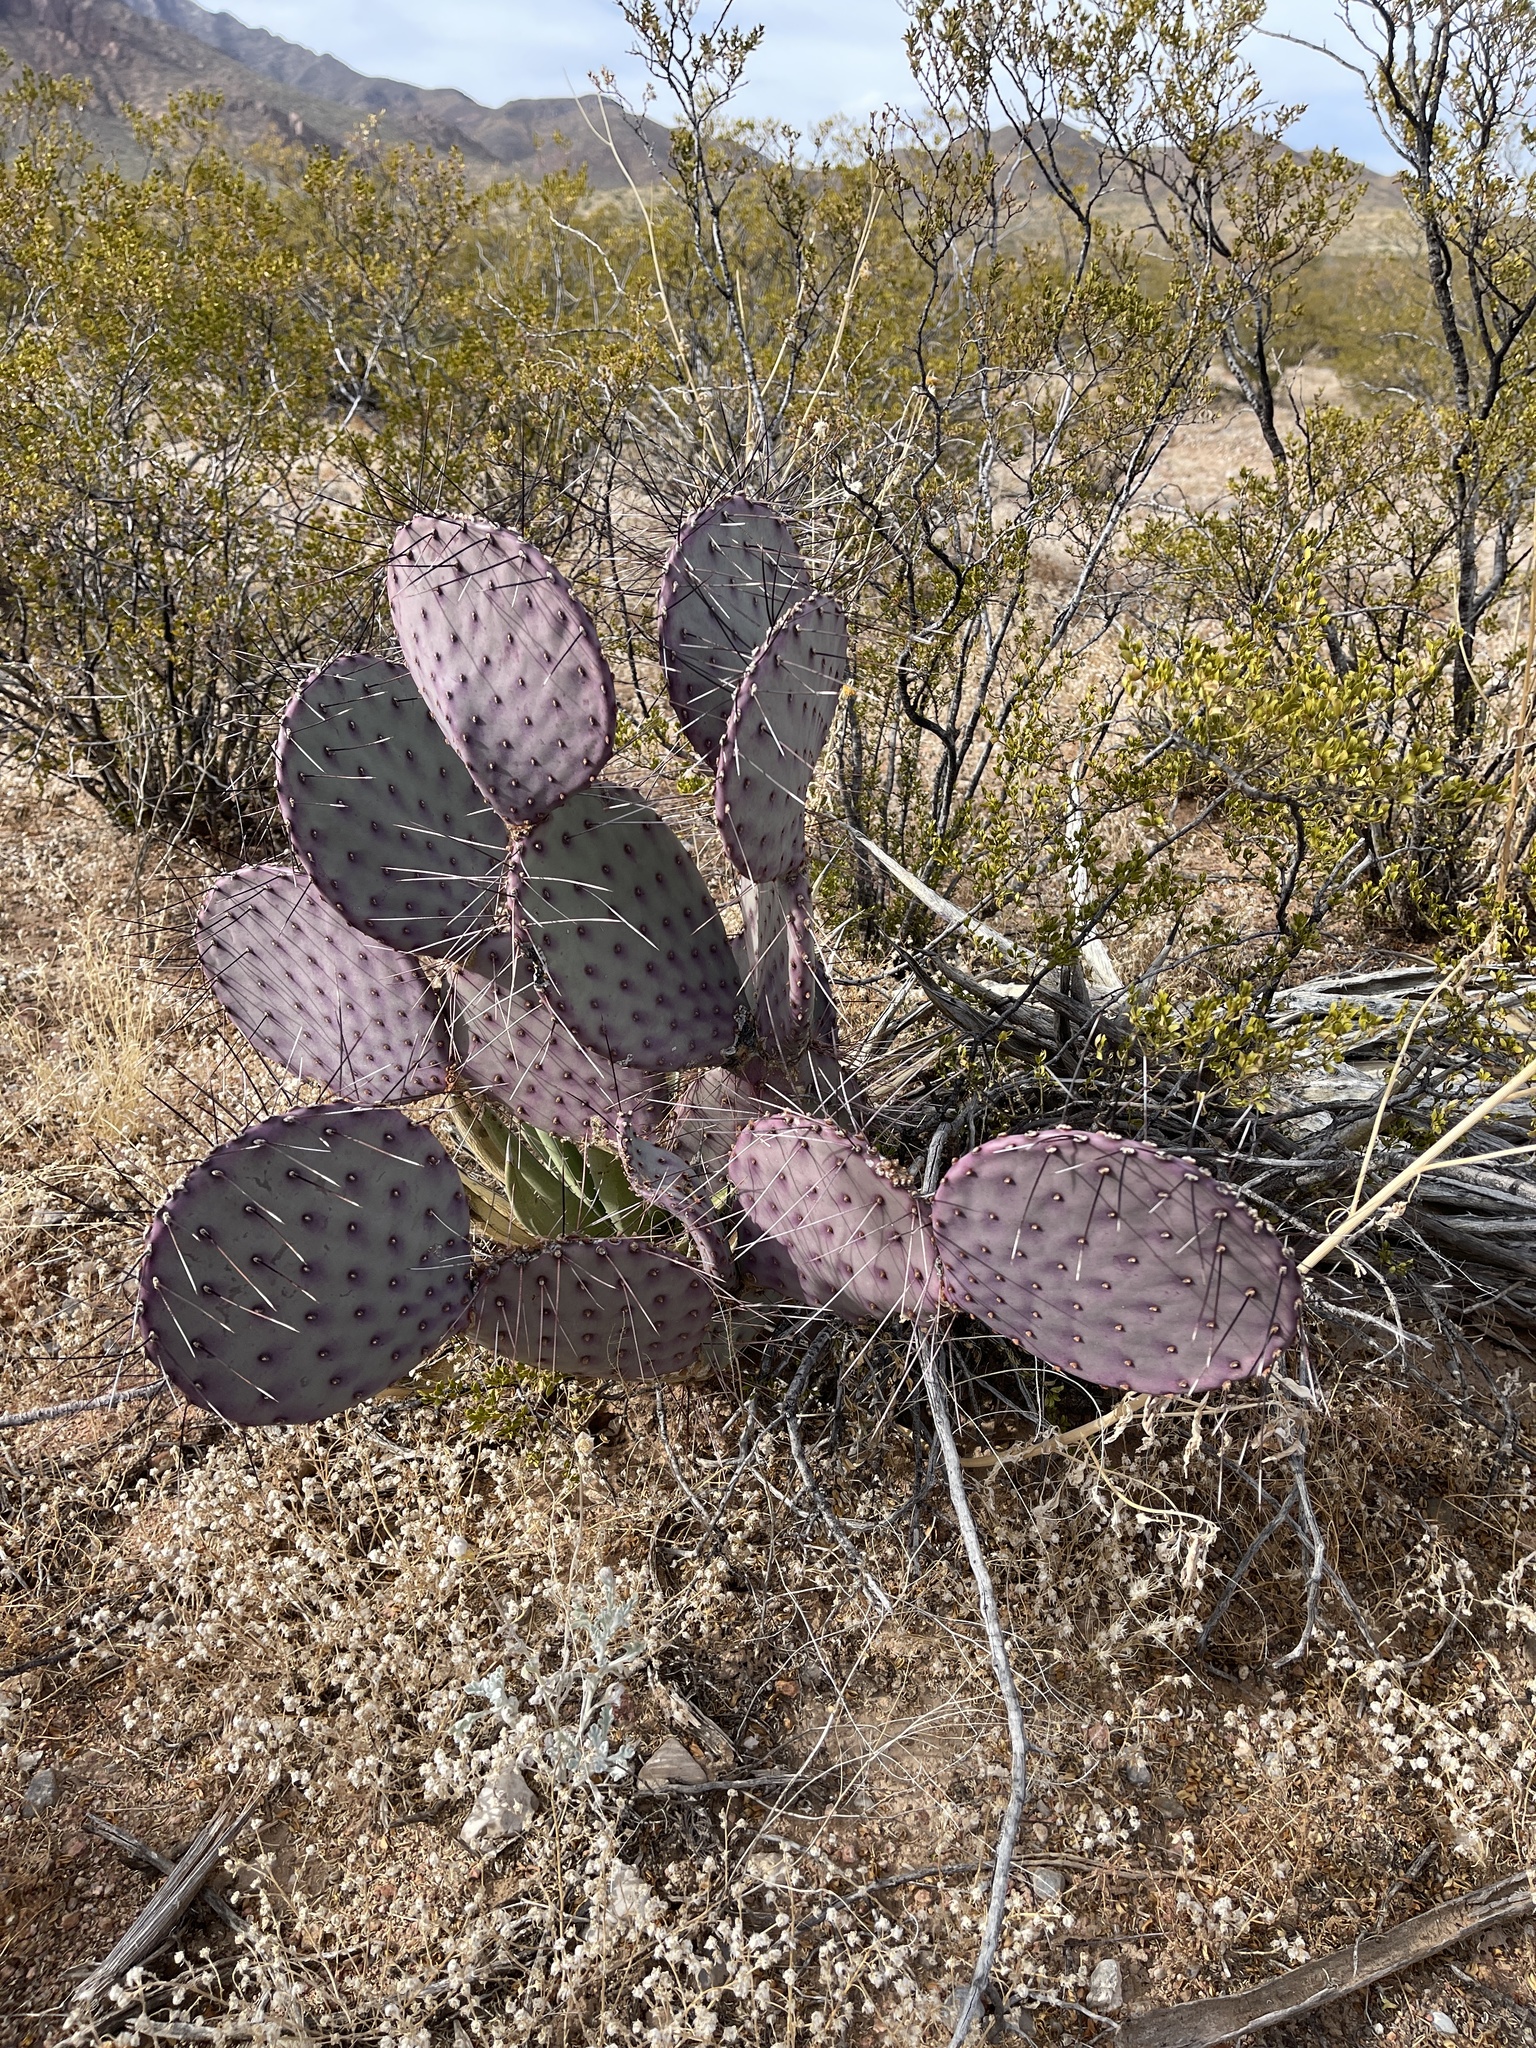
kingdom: Plantae
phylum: Tracheophyta
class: Magnoliopsida
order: Caryophyllales
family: Cactaceae
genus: Opuntia
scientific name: Opuntia macrocentra
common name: Purple prickly-pear
